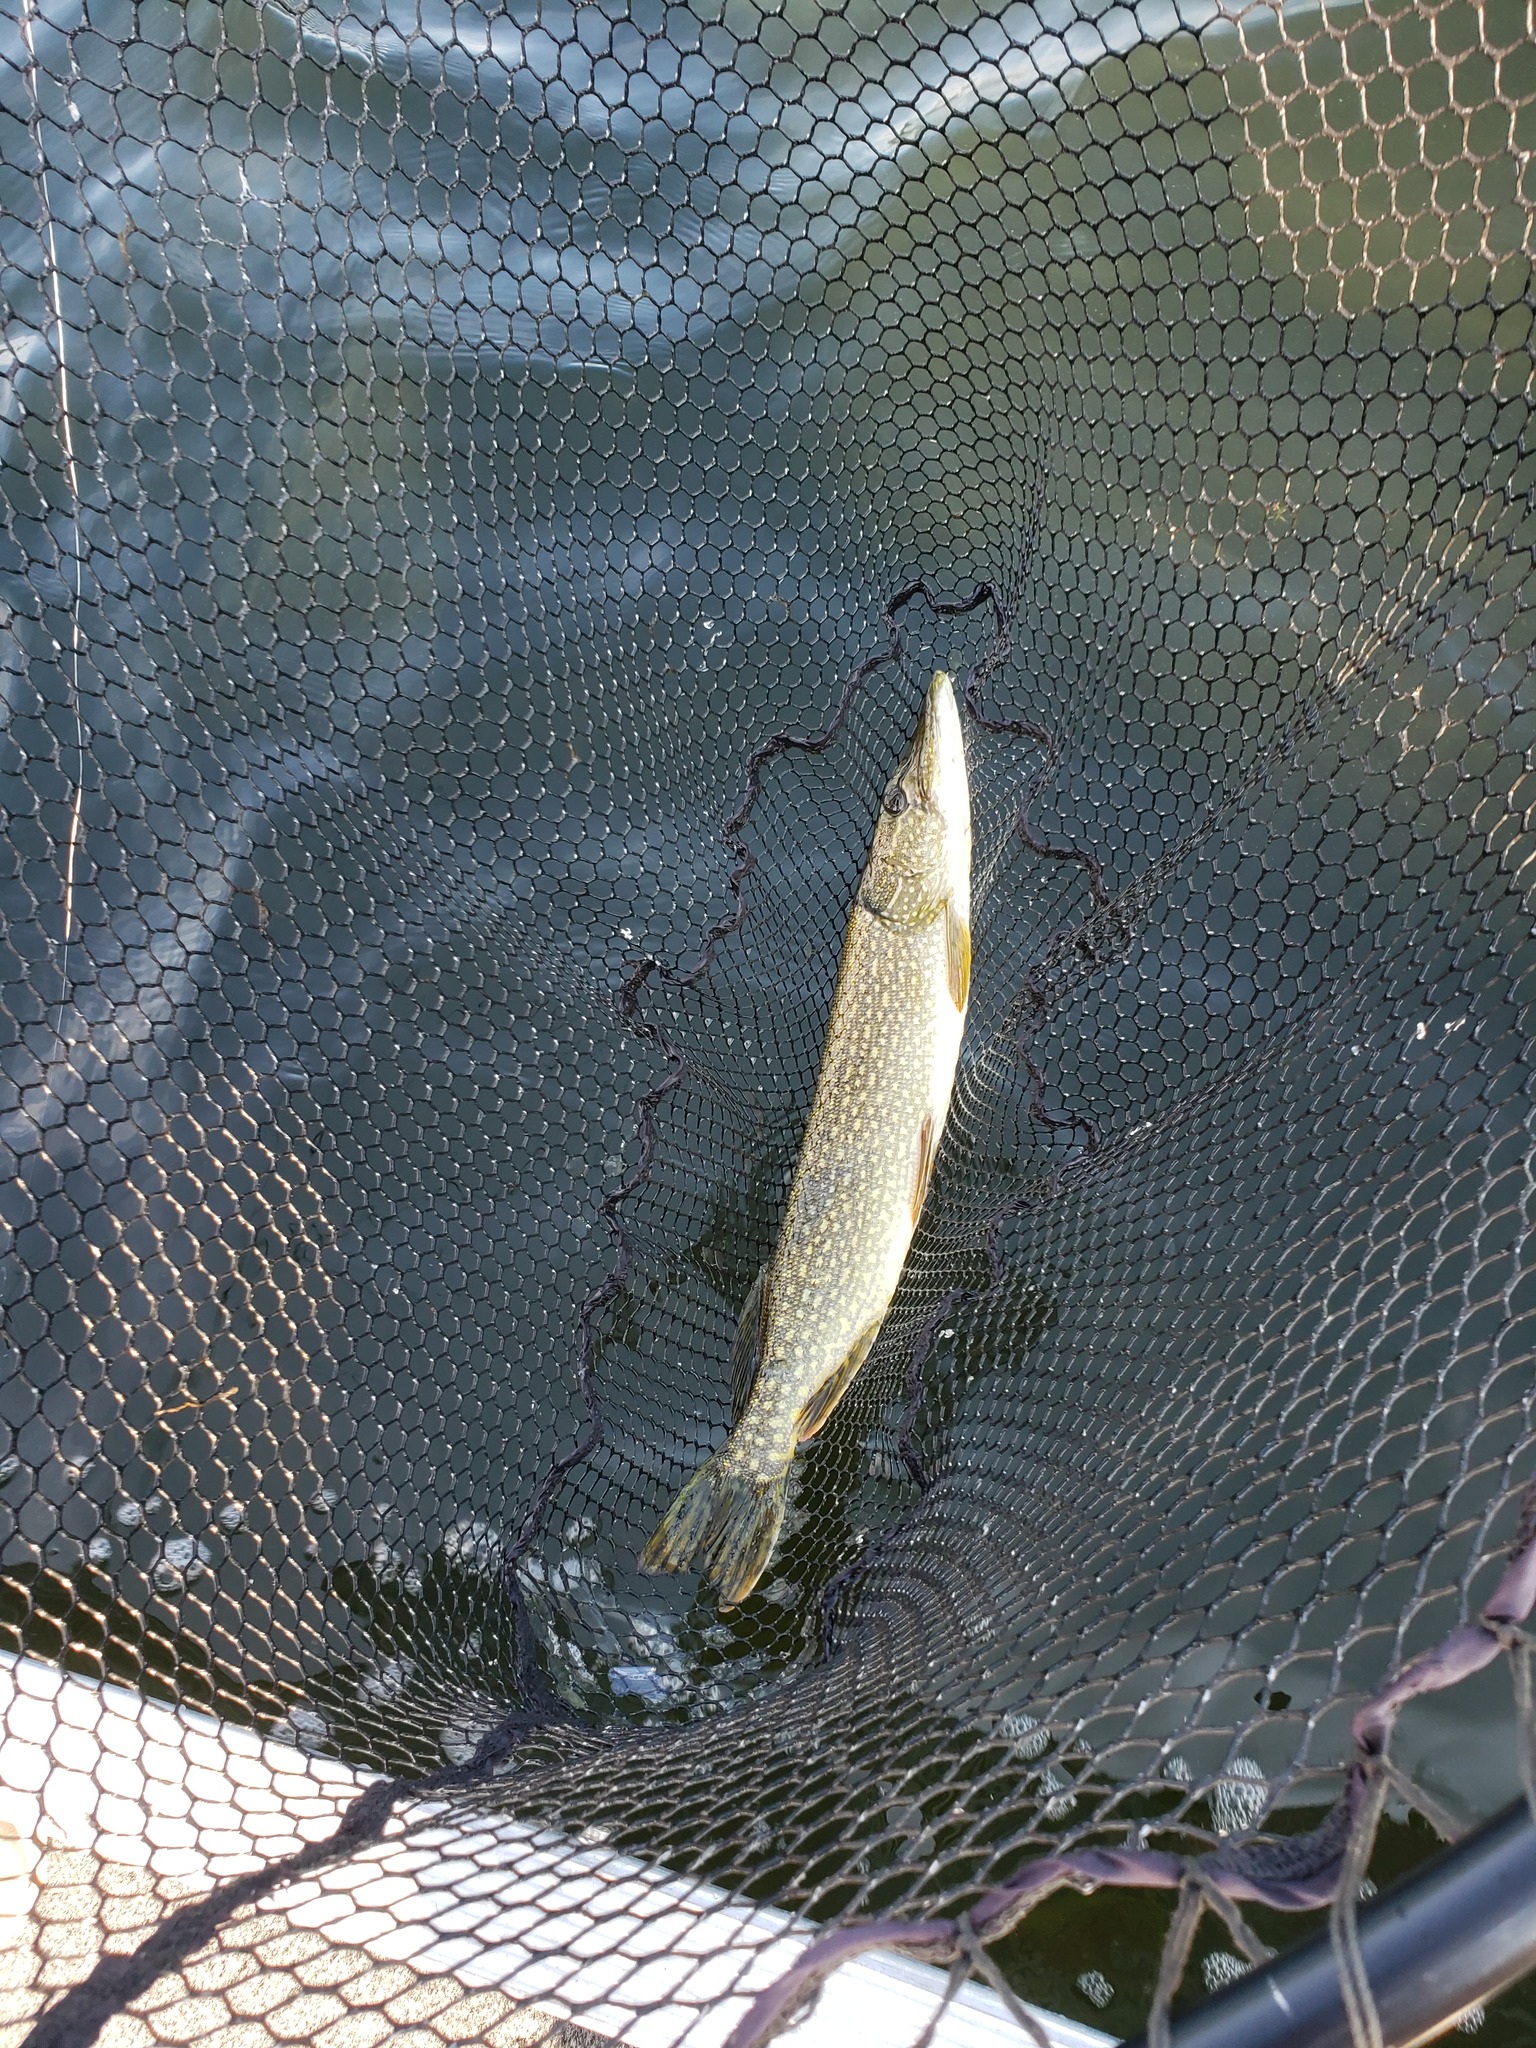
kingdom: Animalia
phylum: Chordata
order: Esociformes
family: Esocidae
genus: Esox
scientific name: Esox lucius
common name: Northern pike
